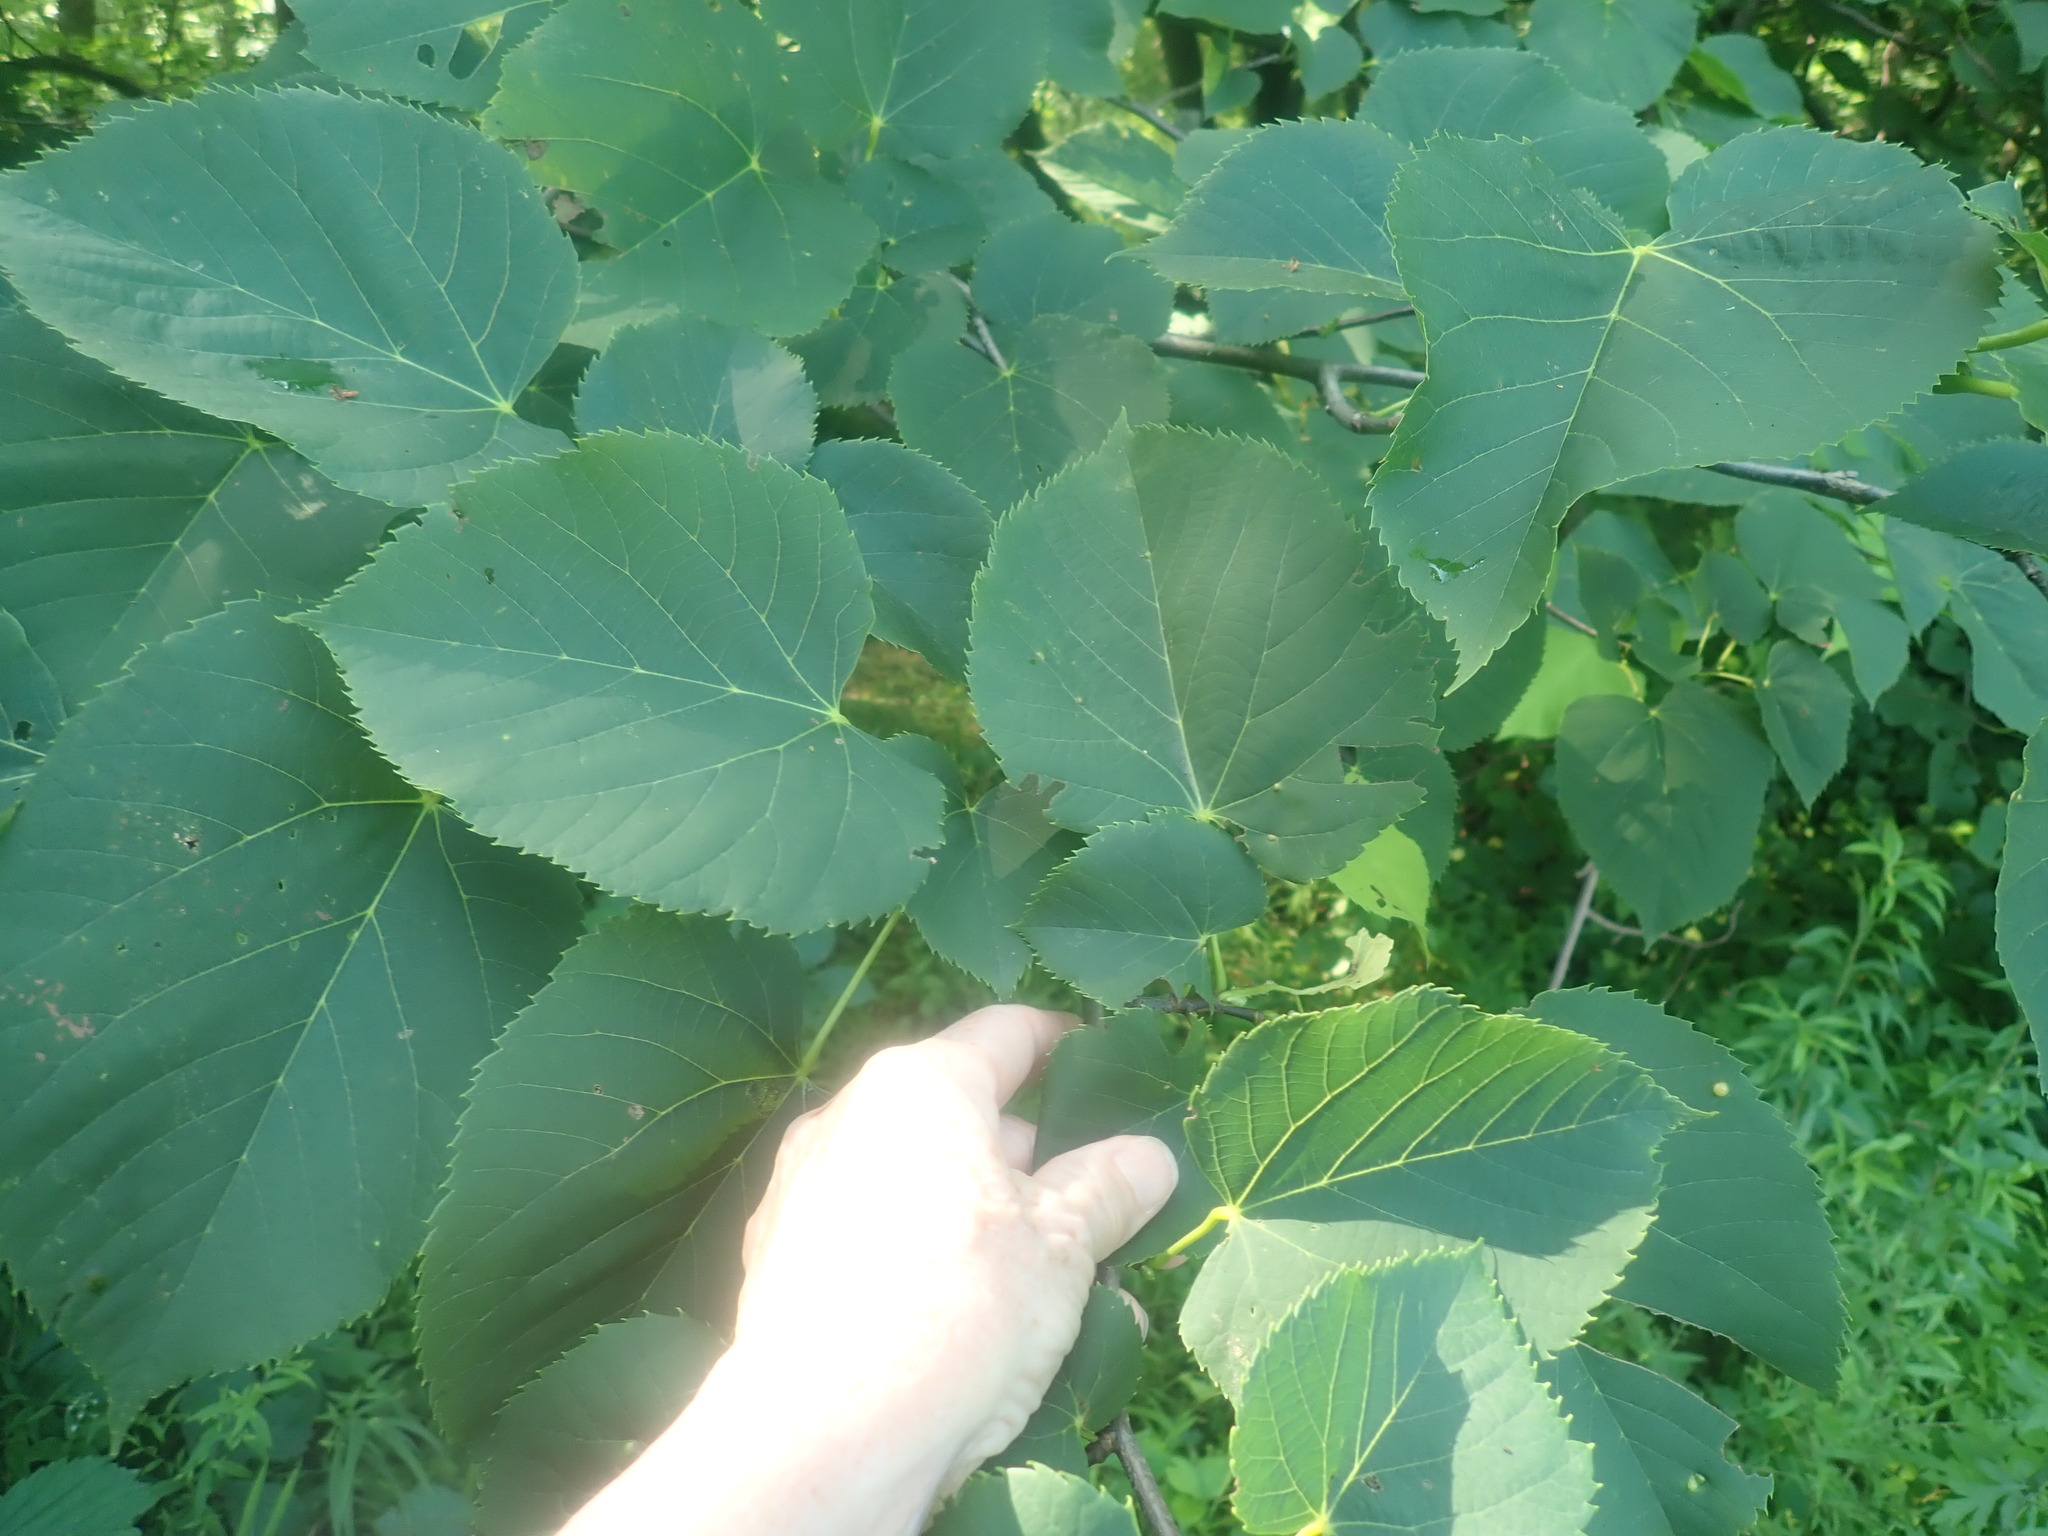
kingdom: Plantae
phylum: Tracheophyta
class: Magnoliopsida
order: Malvales
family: Malvaceae
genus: Tilia
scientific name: Tilia americana
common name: Basswood
